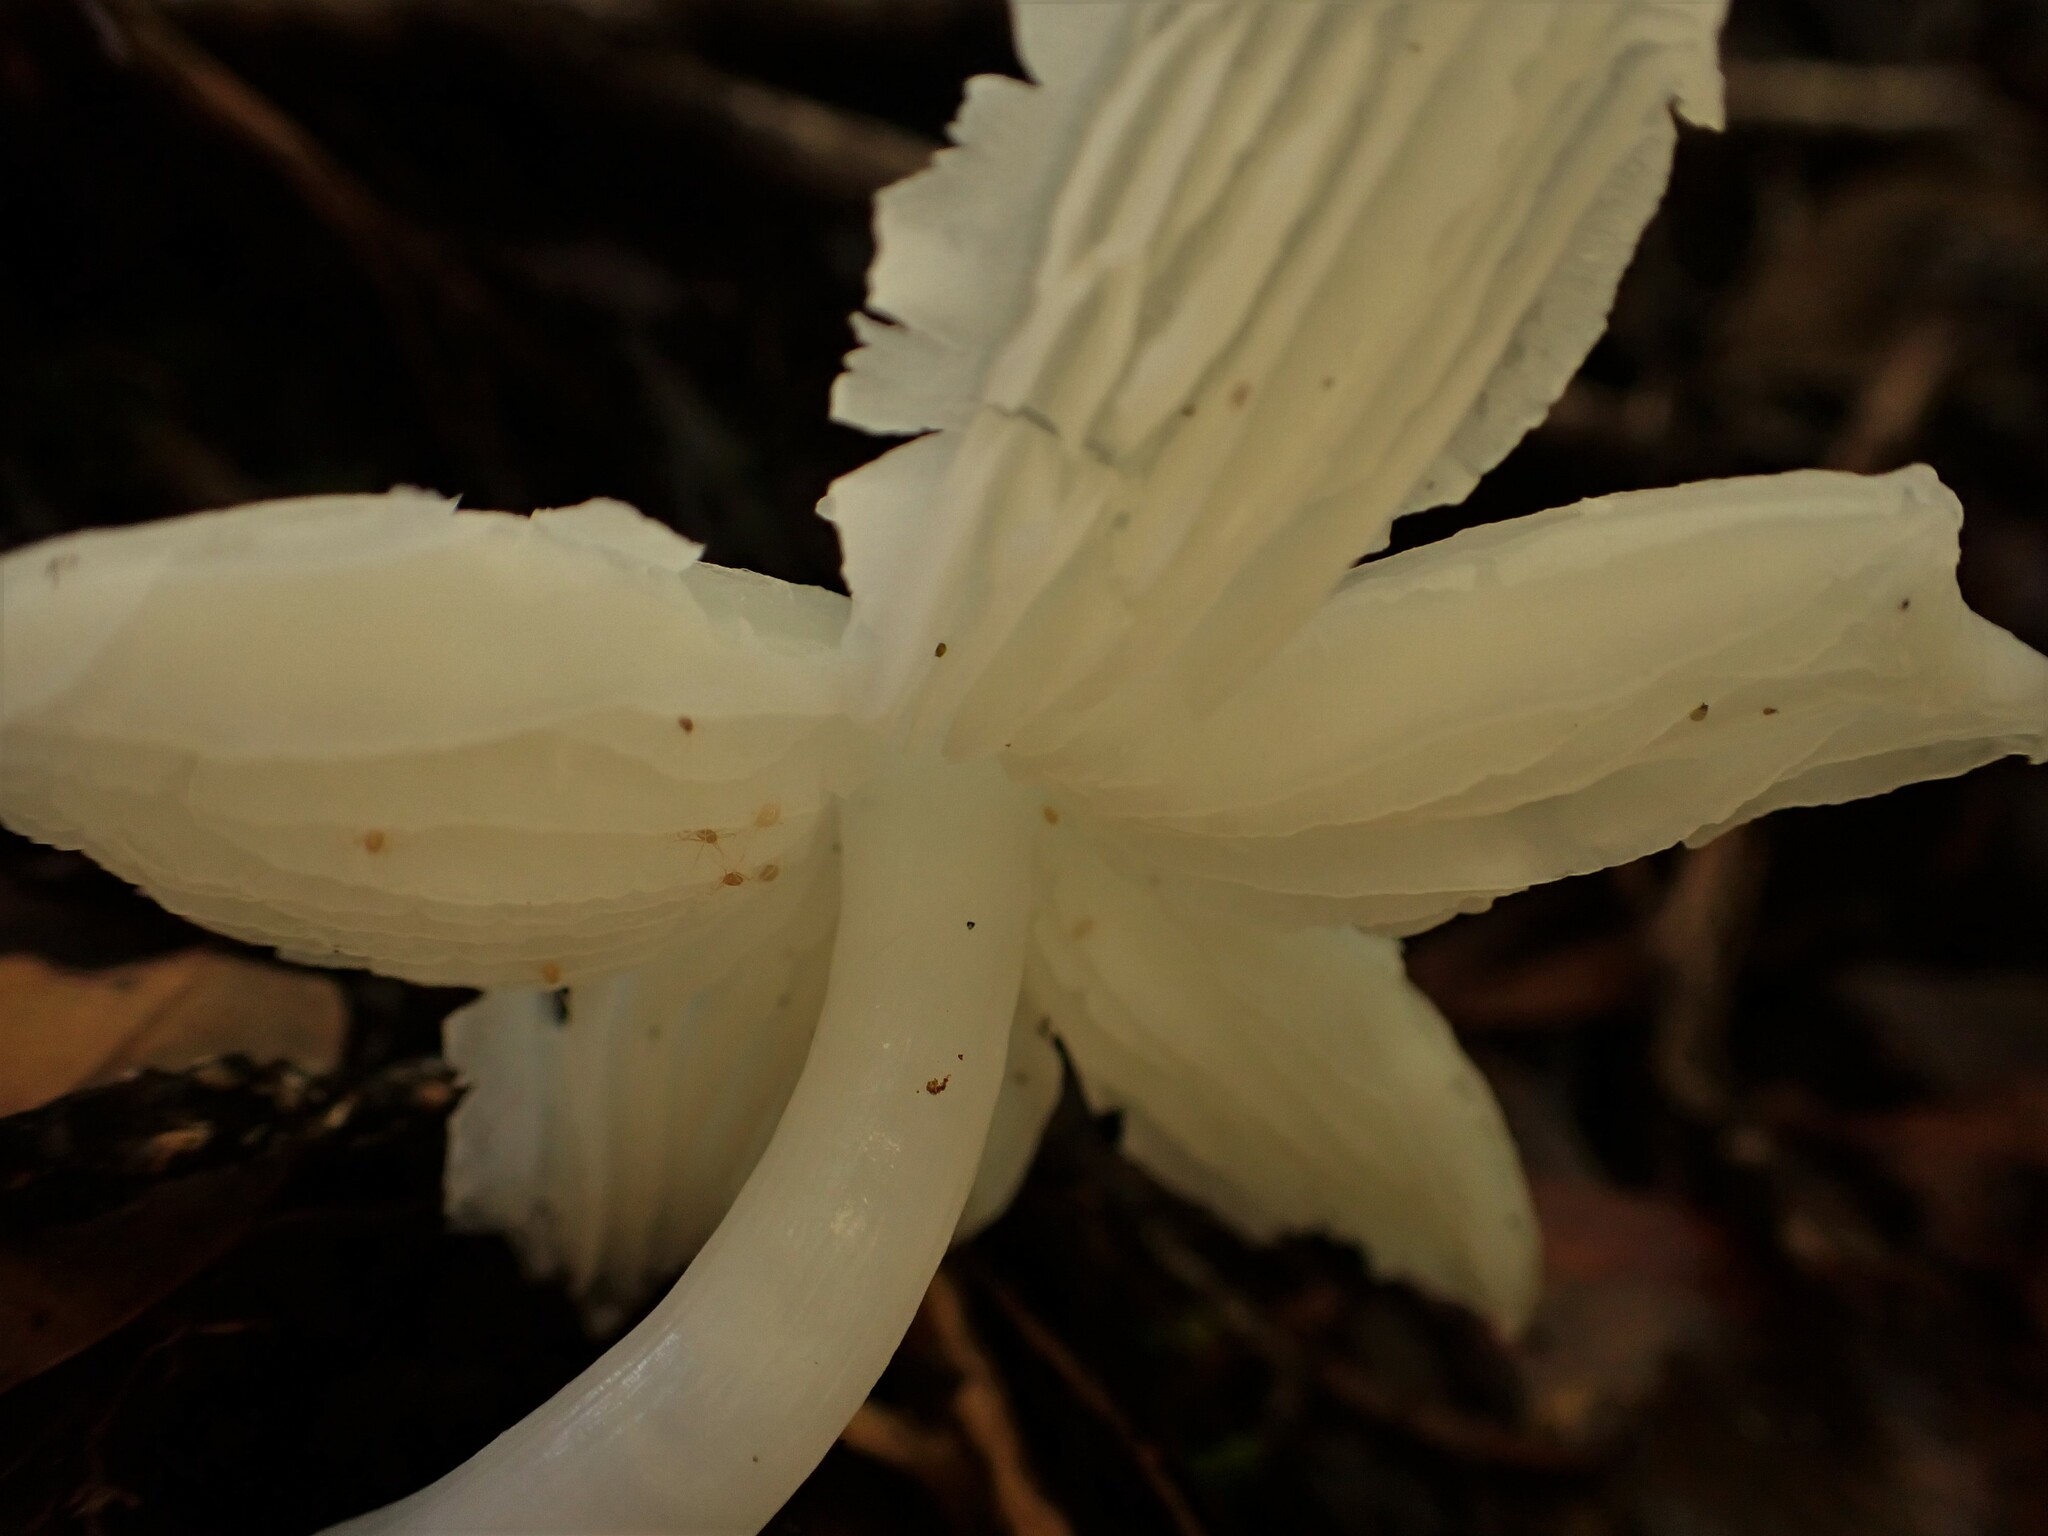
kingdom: Fungi
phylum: Basidiomycota
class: Agaricomycetes
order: Agaricales
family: Hygrophoraceae
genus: Humidicutis
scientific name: Humidicutis mavis
